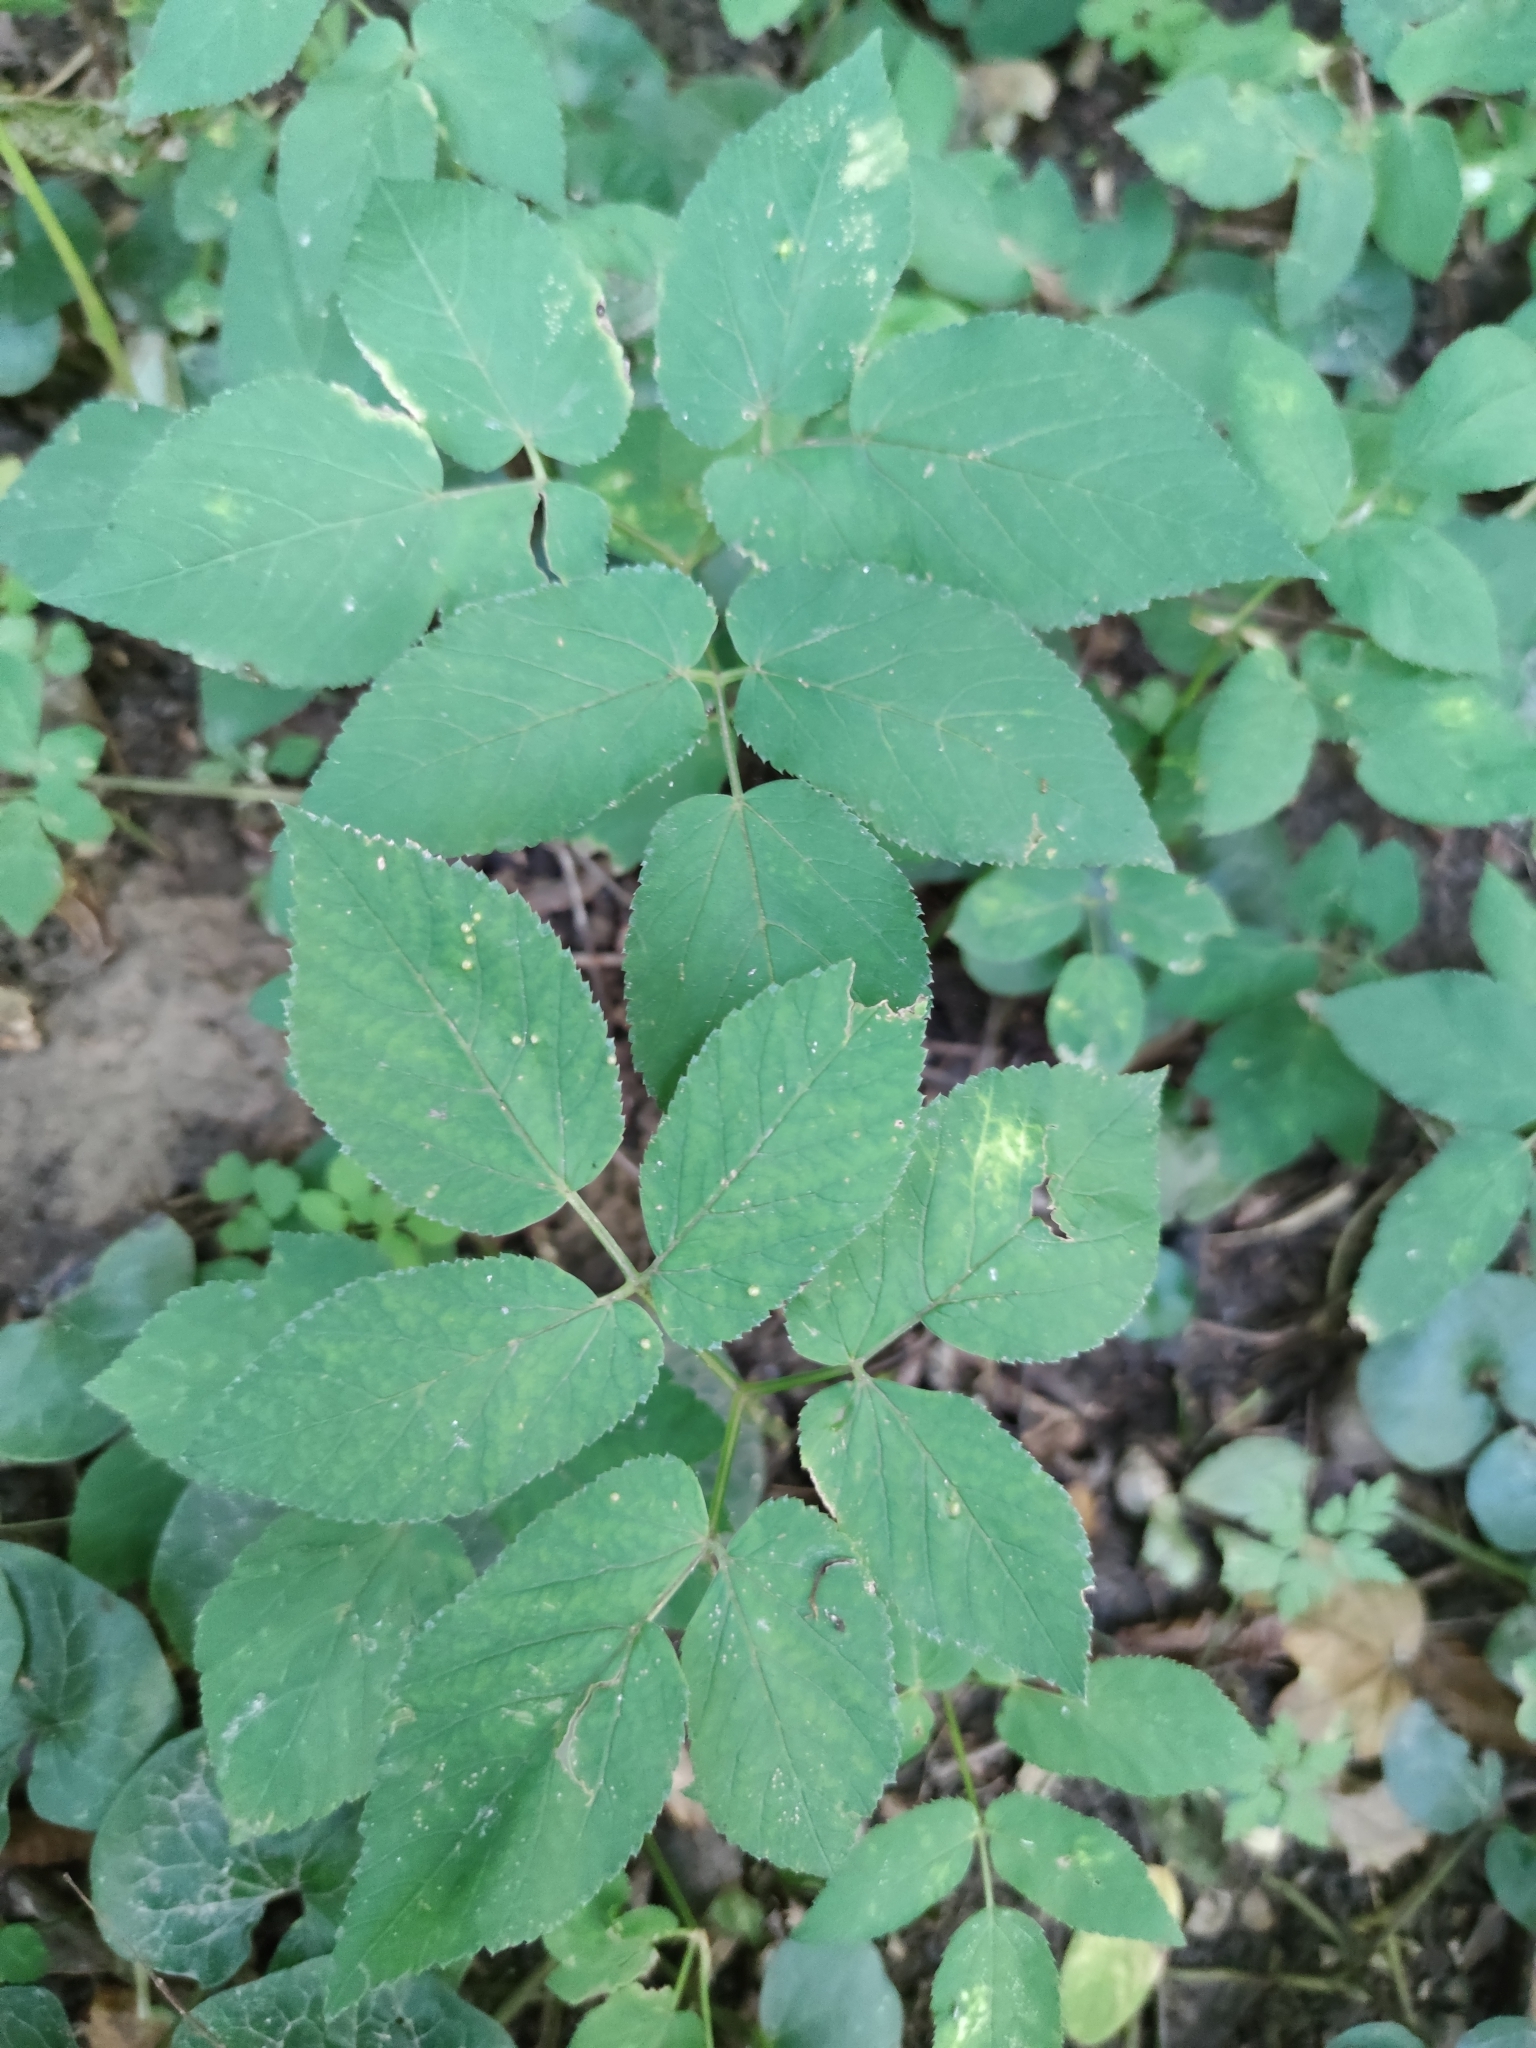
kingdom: Plantae
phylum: Tracheophyta
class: Magnoliopsida
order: Apiales
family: Apiaceae
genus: Aegopodium
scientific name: Aegopodium podagraria
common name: Ground-elder
